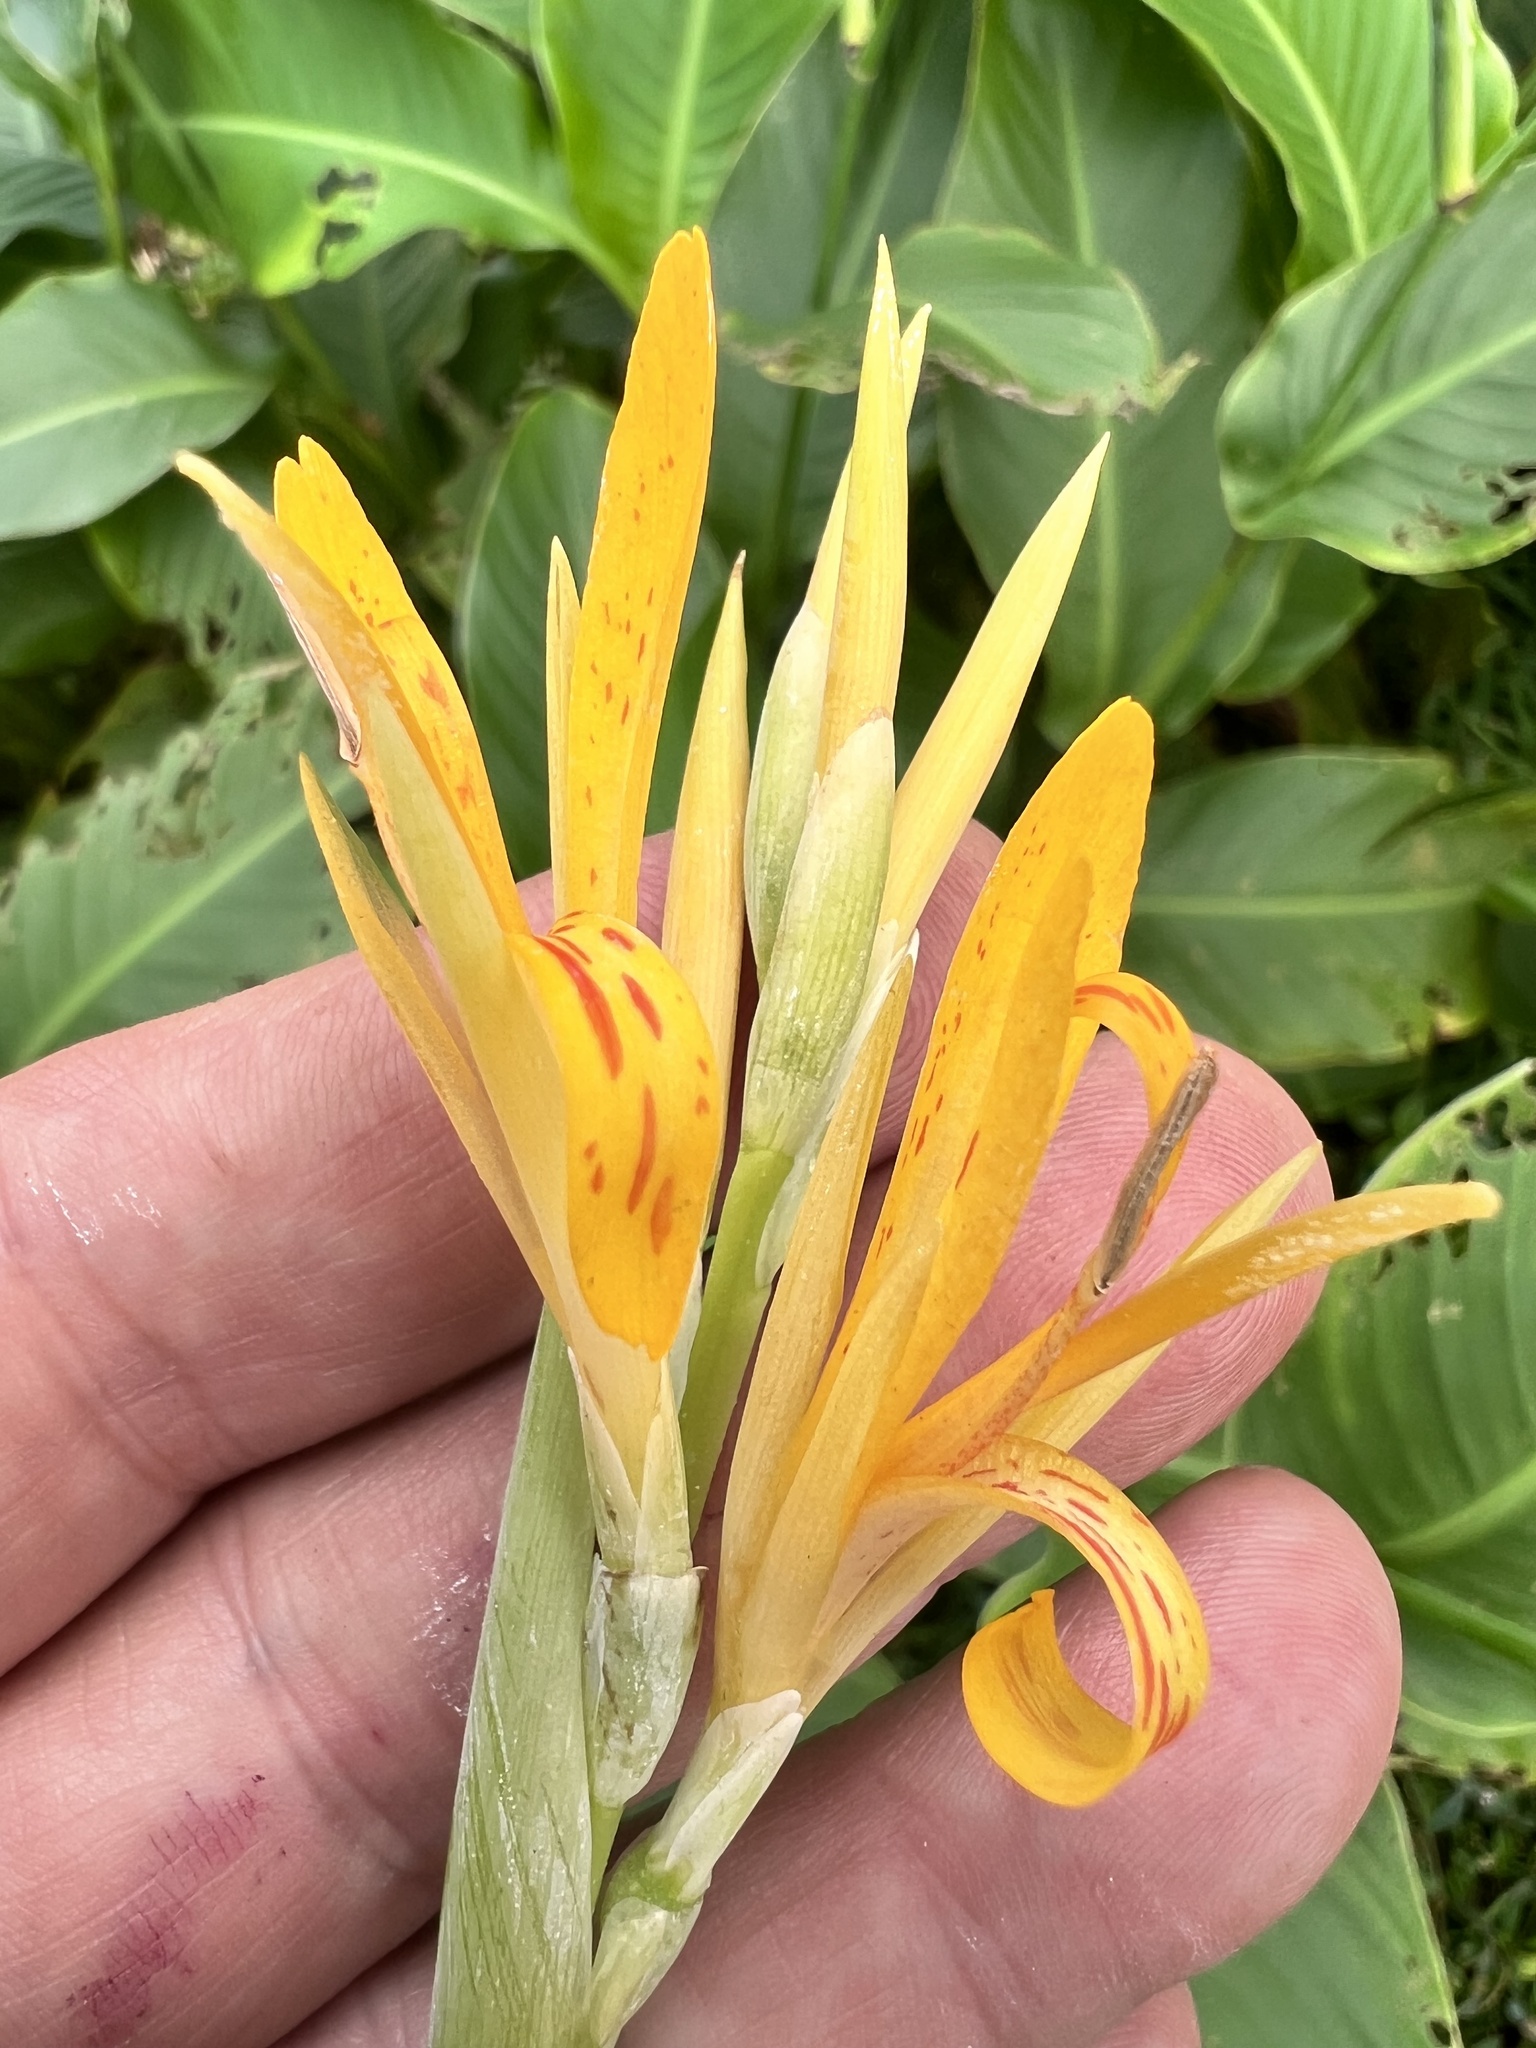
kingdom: Plantae
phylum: Tracheophyta
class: Liliopsida
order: Zingiberales
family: Cannaceae
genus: Canna
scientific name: Canna indica
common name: Indian shot
